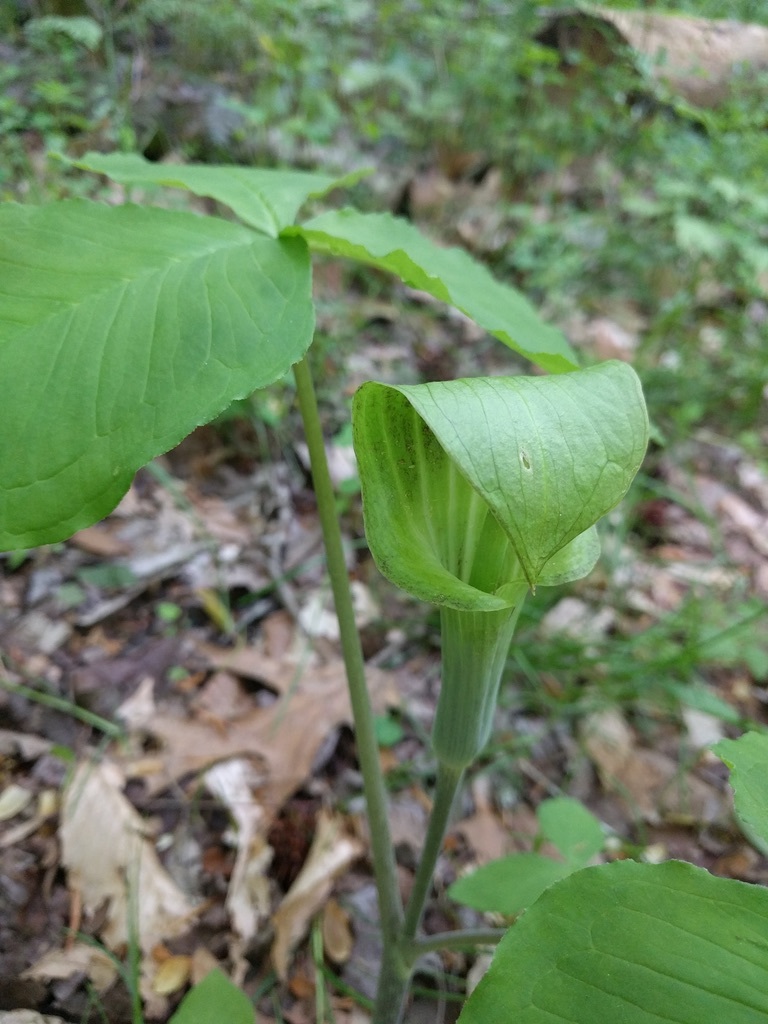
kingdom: Plantae
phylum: Tracheophyta
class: Liliopsida
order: Alismatales
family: Araceae
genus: Arisaema
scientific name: Arisaema triphyllum
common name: Jack-in-the-pulpit
